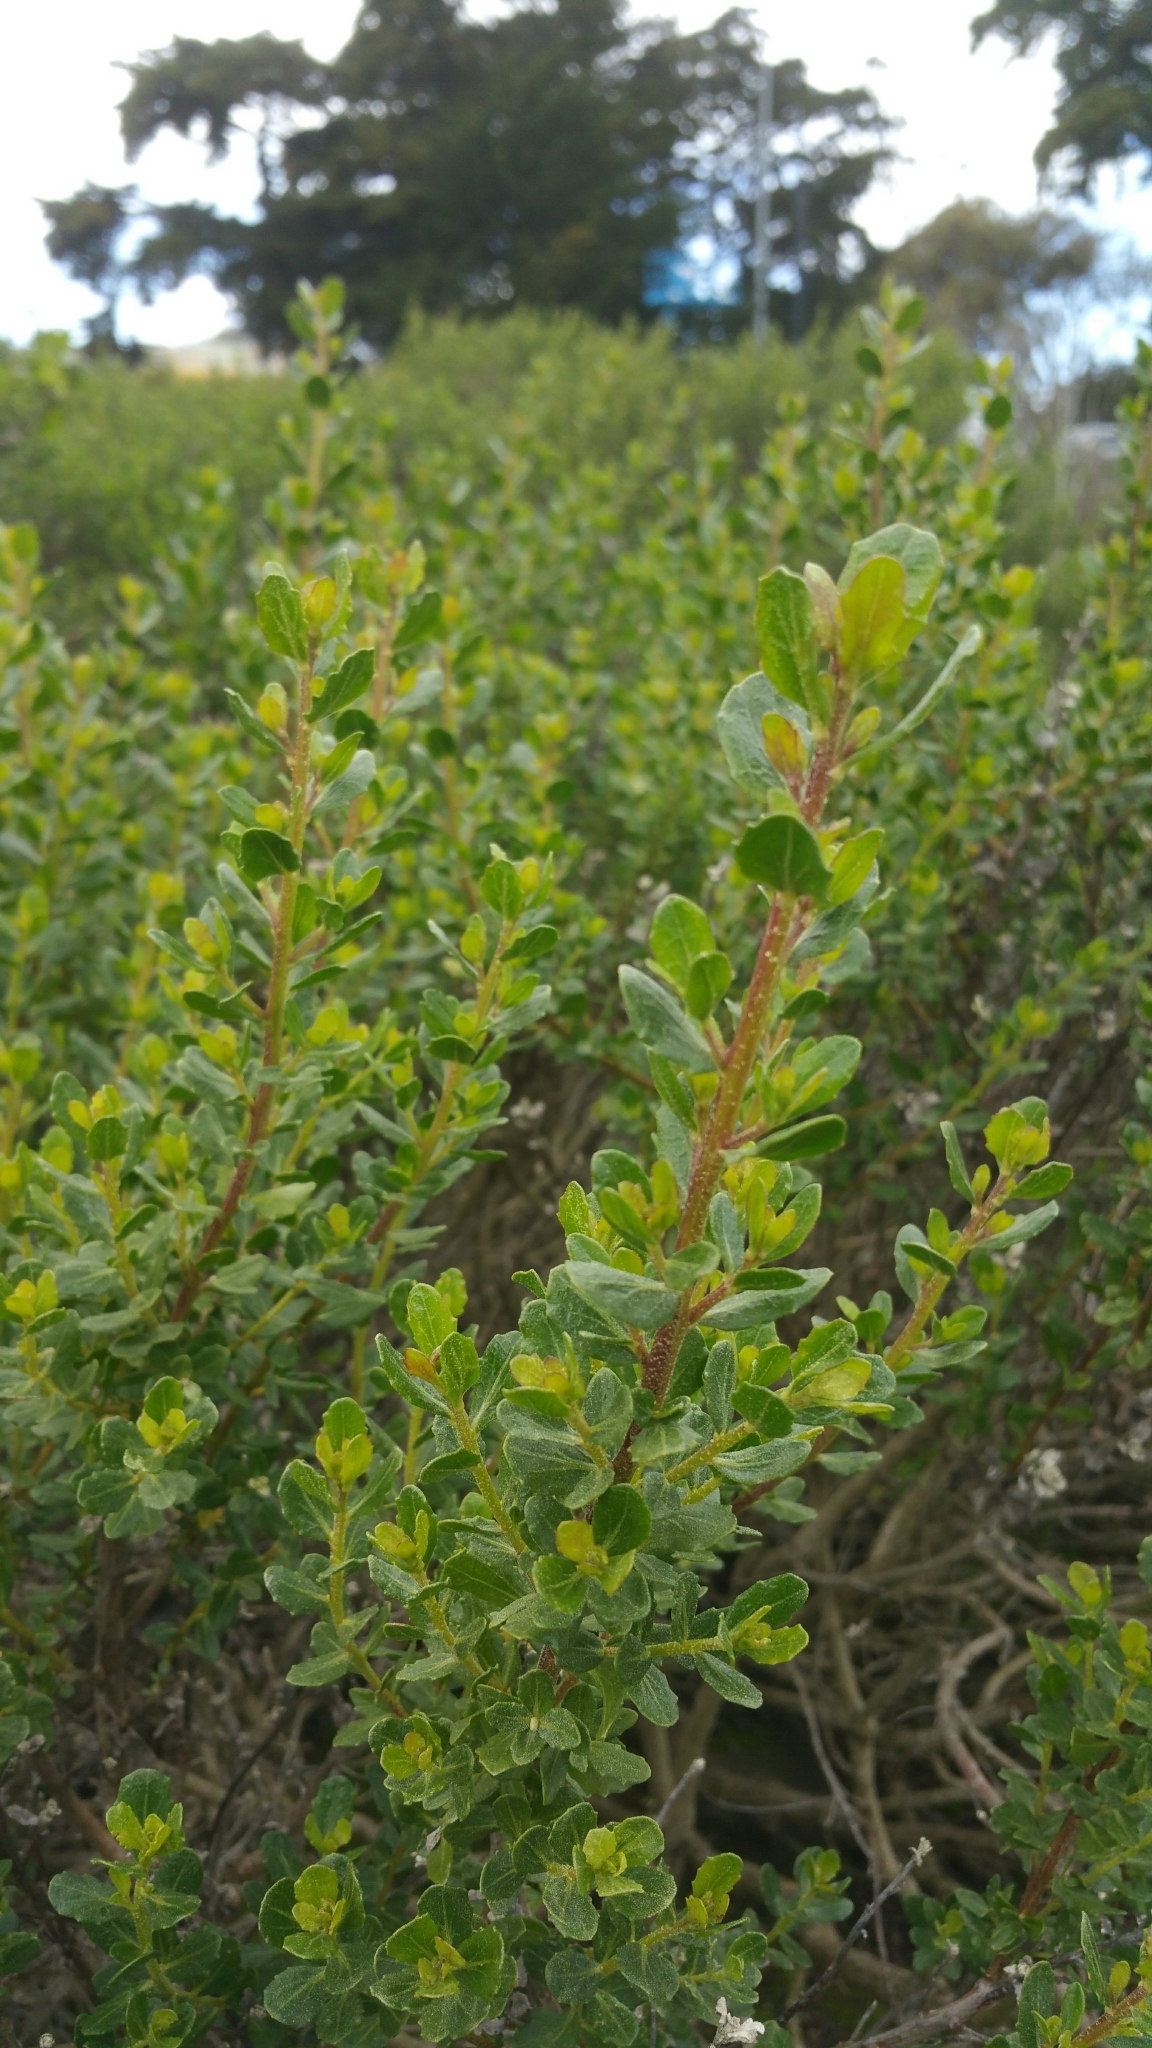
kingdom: Plantae
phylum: Tracheophyta
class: Magnoliopsida
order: Asterales
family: Asteraceae
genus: Baccharis
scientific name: Baccharis pilularis
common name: Coyotebrush
